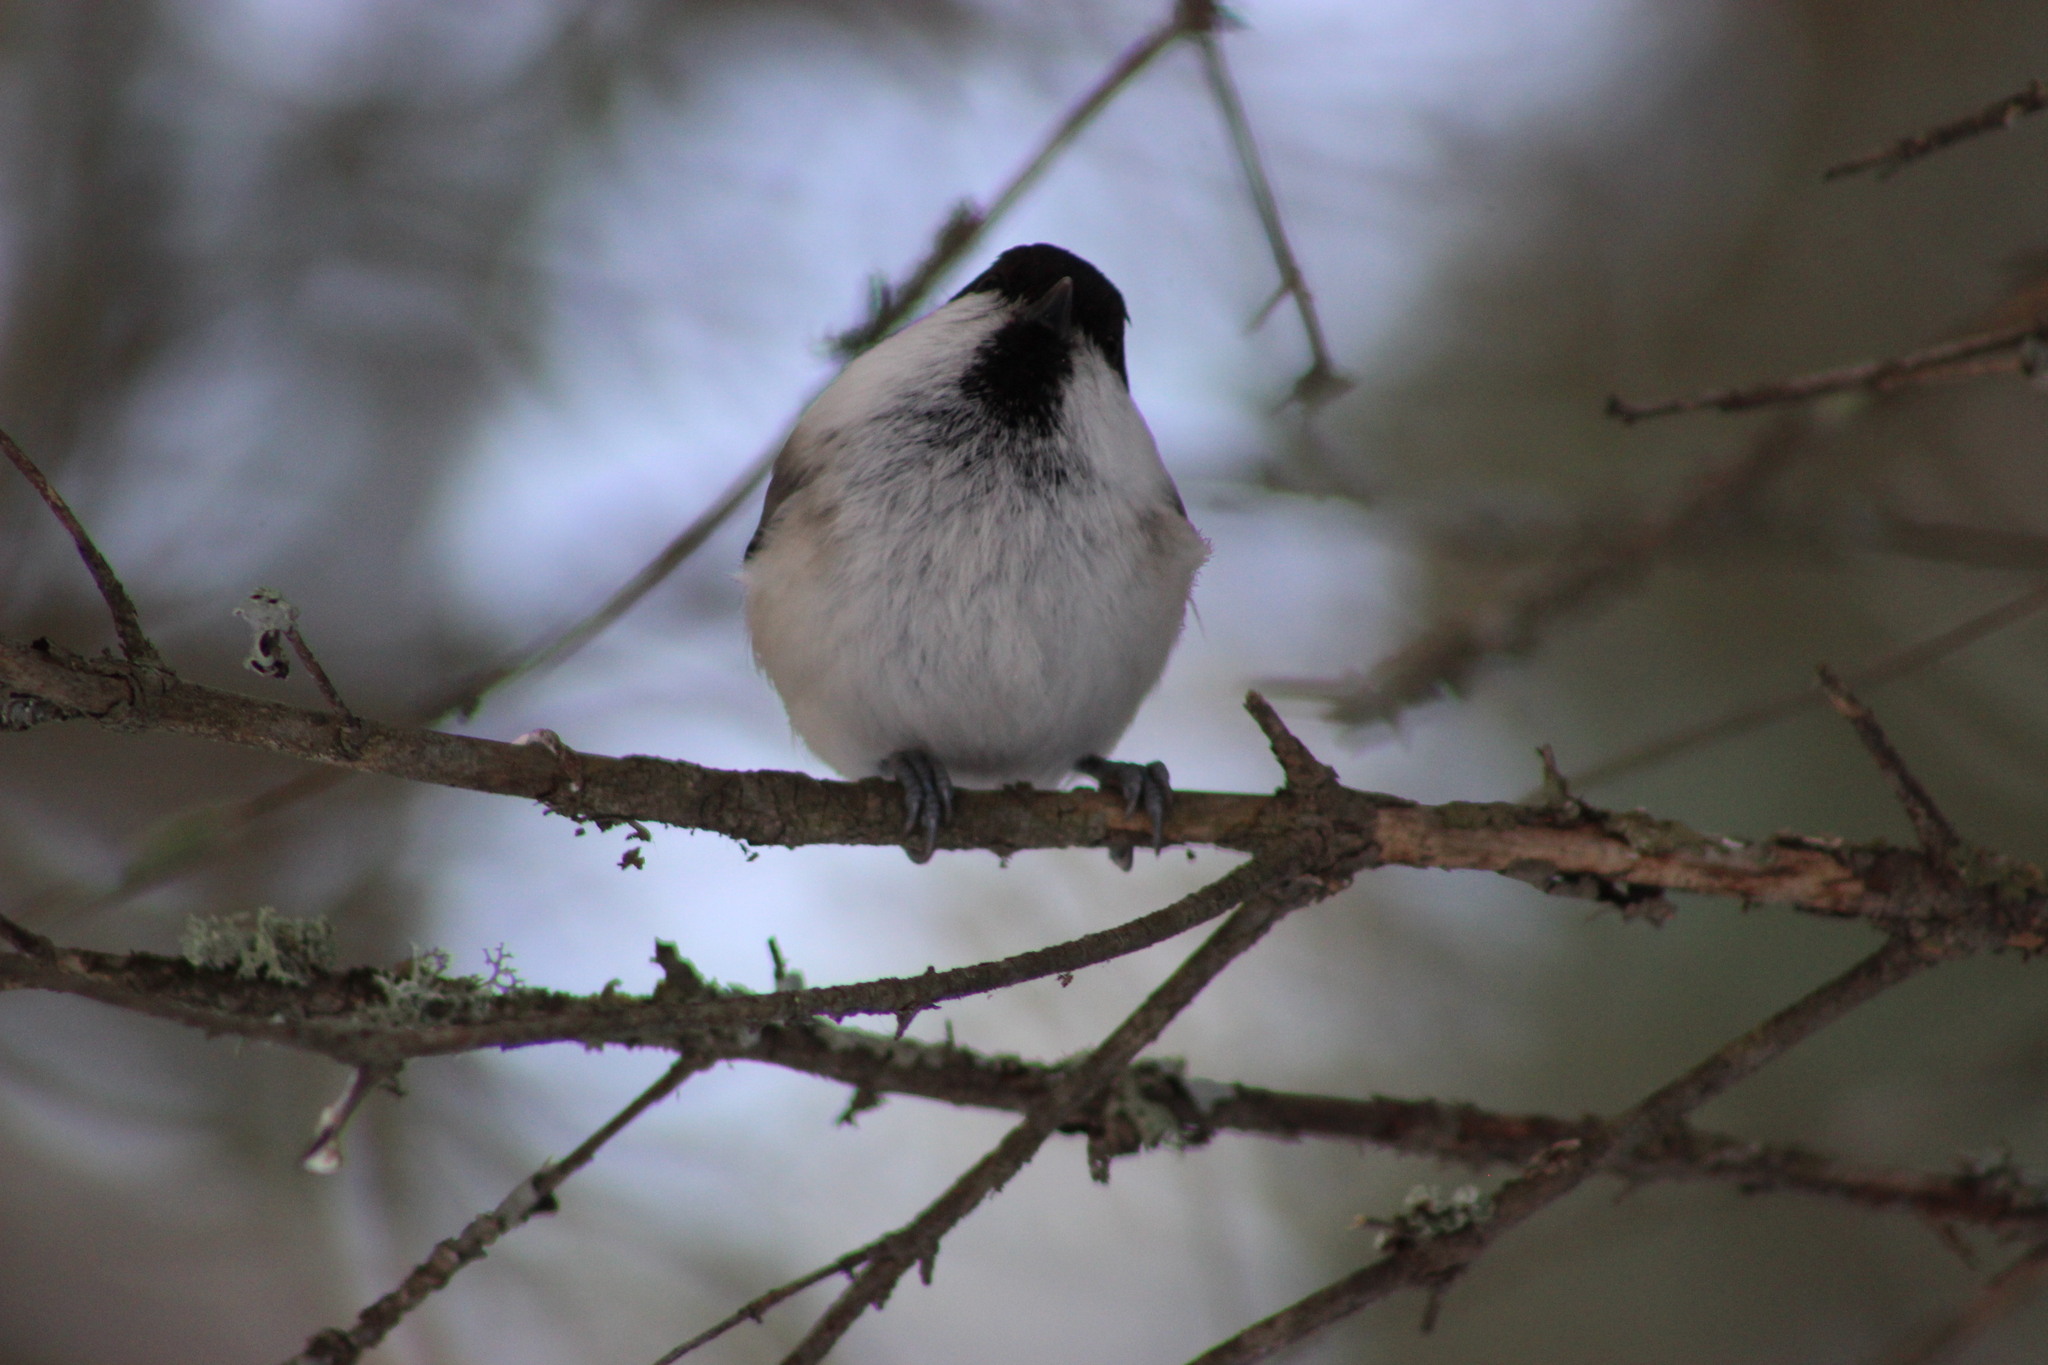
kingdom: Animalia
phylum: Chordata
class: Aves
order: Passeriformes
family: Paridae
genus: Poecile
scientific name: Poecile montanus
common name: Willow tit
